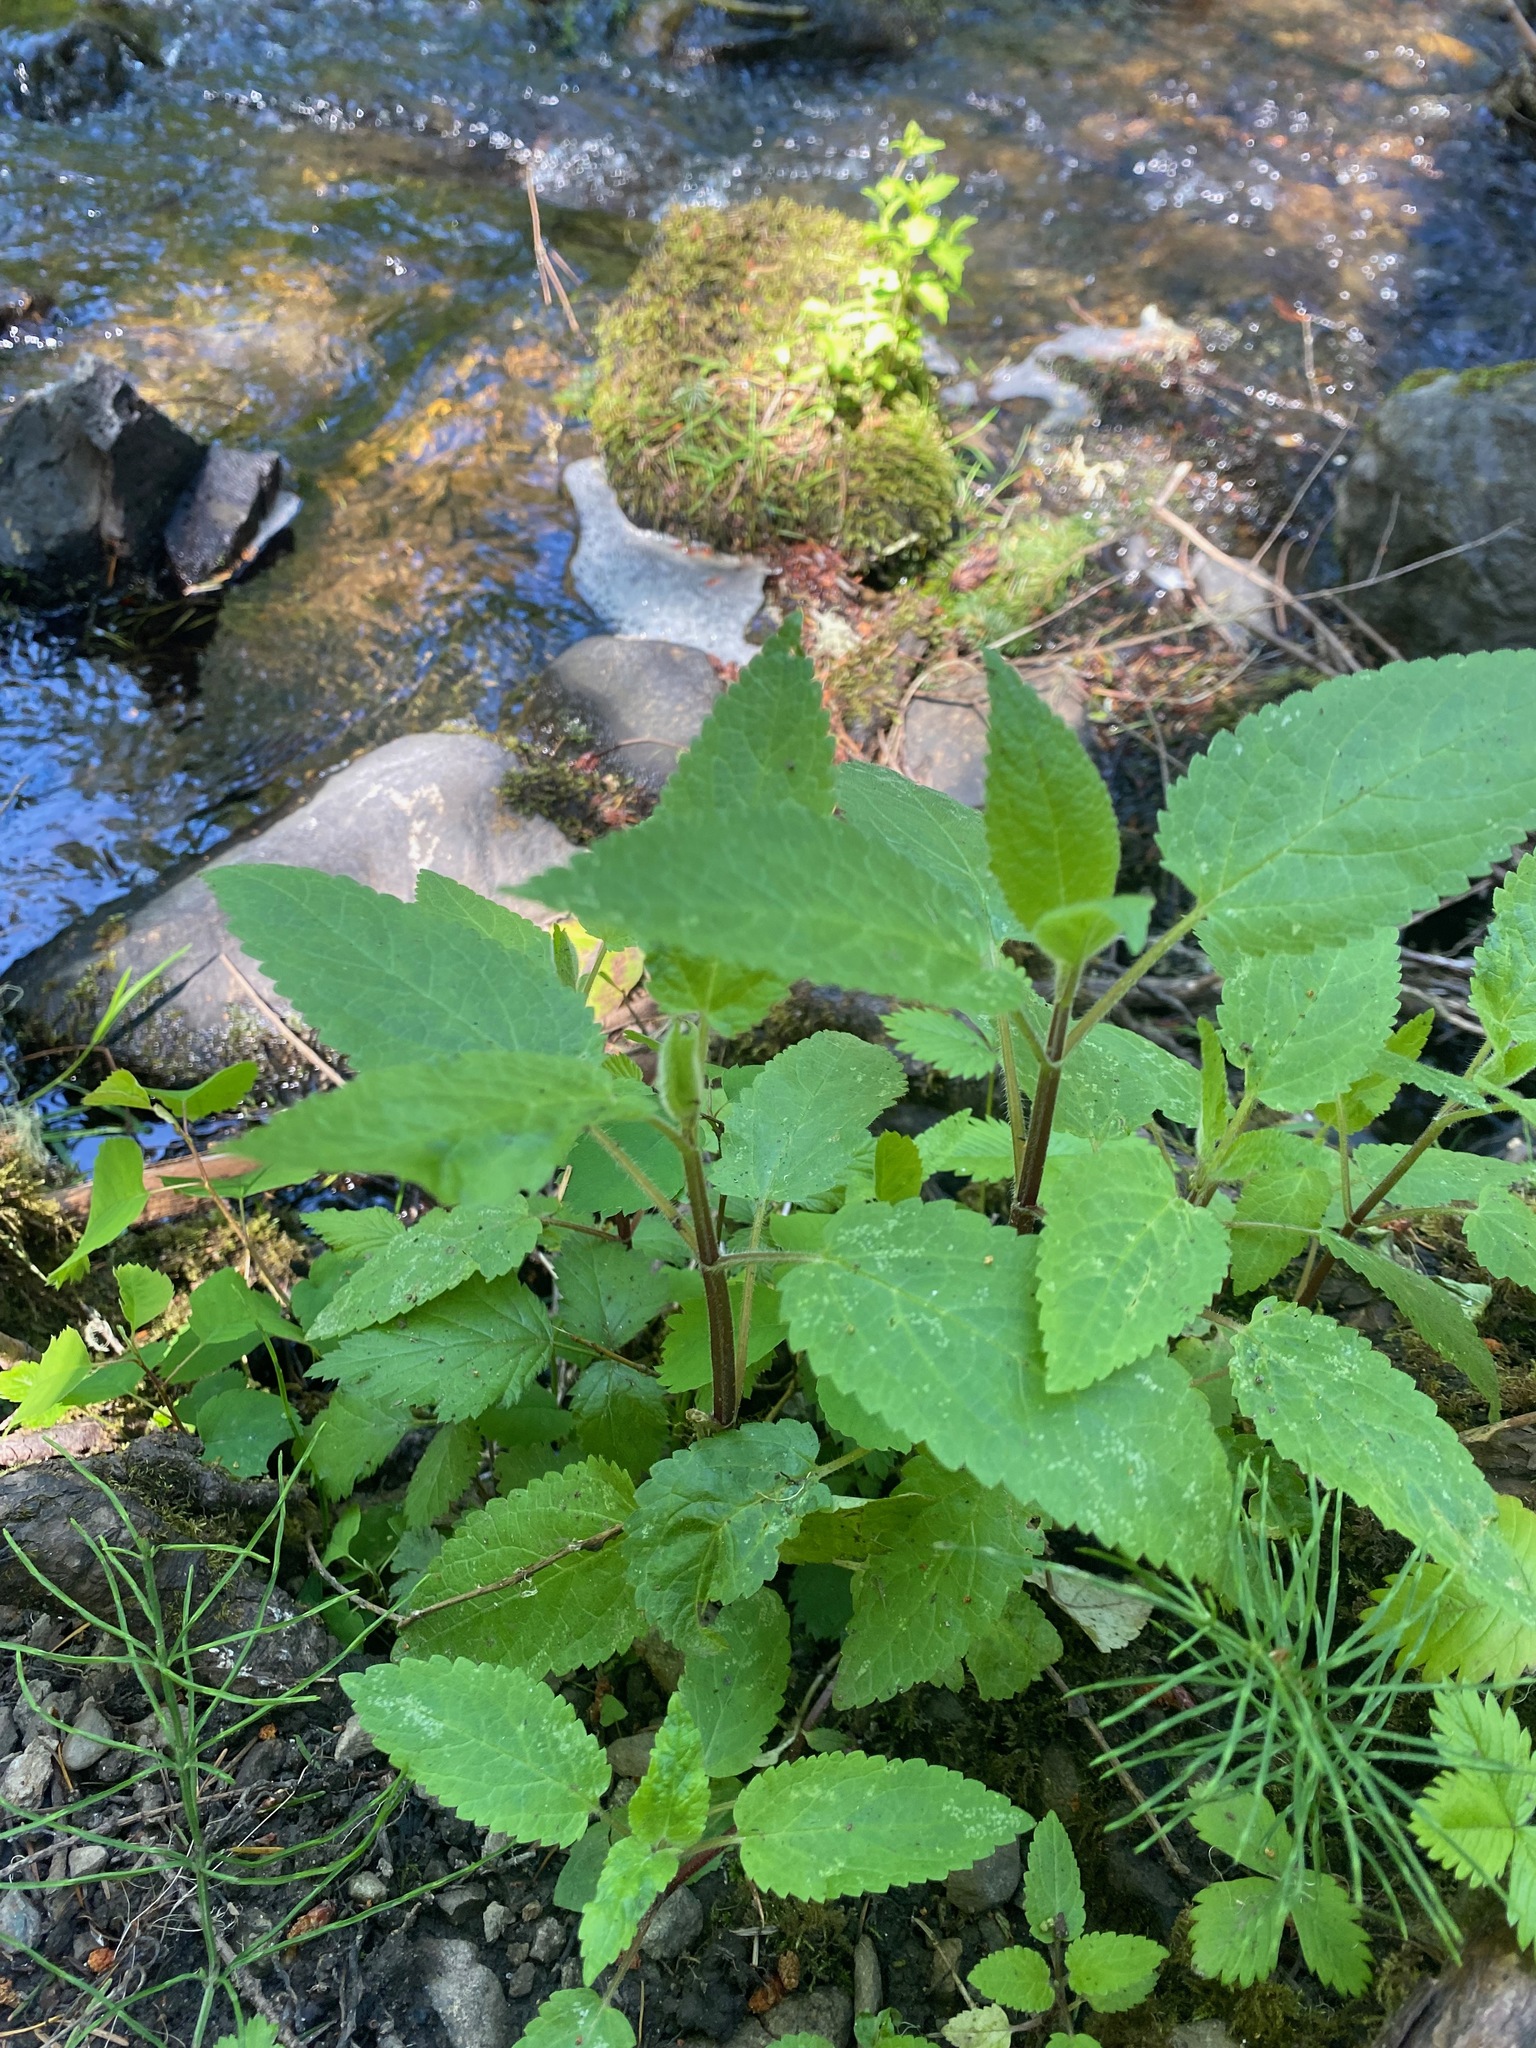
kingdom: Plantae
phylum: Tracheophyta
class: Magnoliopsida
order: Lamiales
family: Lamiaceae
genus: Stachys
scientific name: Stachys chamissonis
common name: Coastal hedge-nettle
